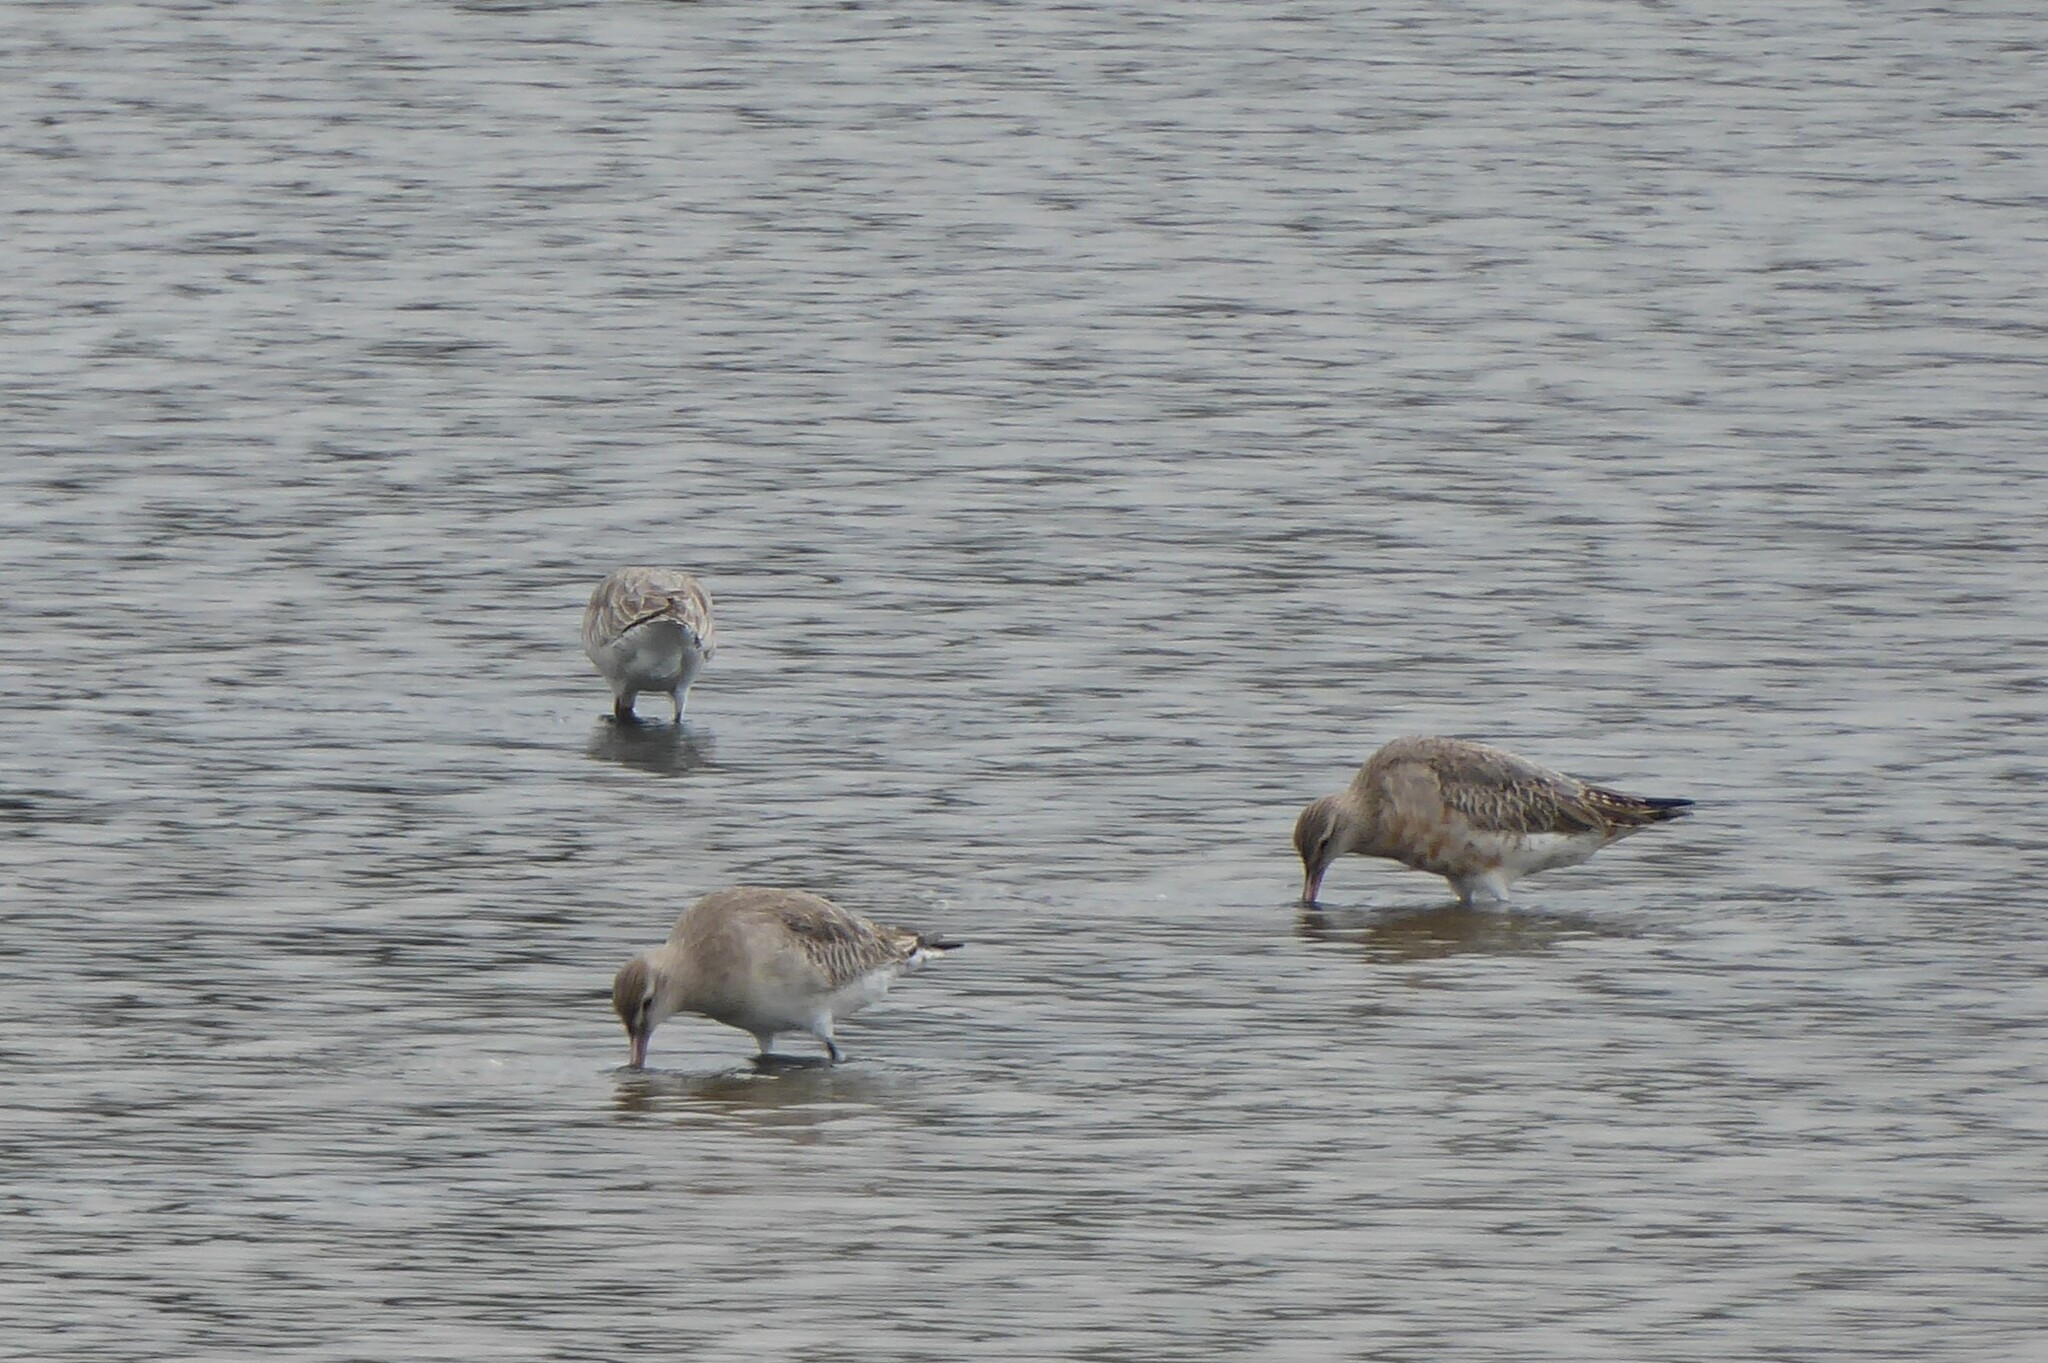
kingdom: Animalia
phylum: Chordata
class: Aves
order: Charadriiformes
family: Scolopacidae
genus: Limosa
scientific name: Limosa lapponica
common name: Bar-tailed godwit
